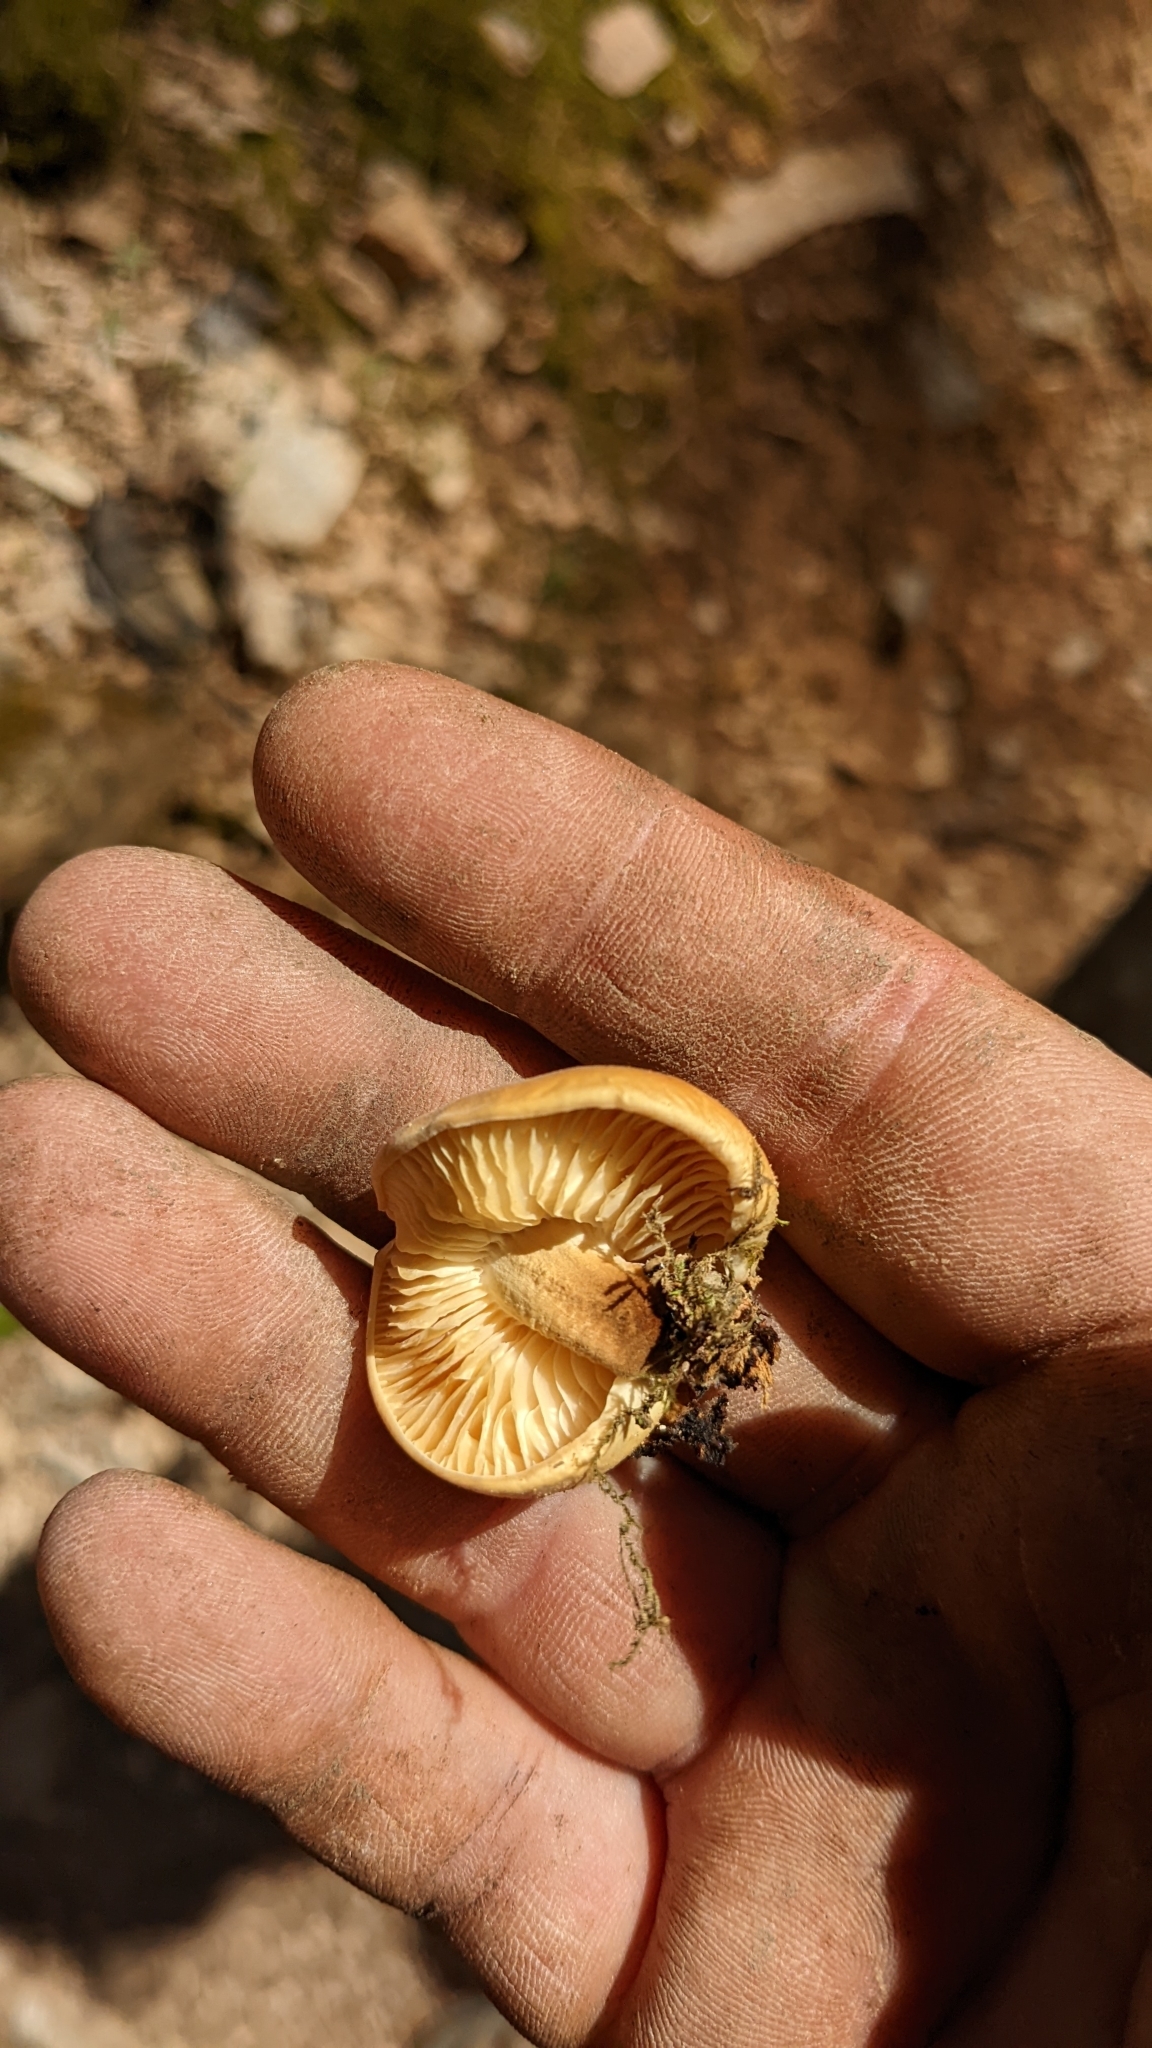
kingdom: Fungi
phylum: Basidiomycota
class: Agaricomycetes
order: Agaricales
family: Physalacriaceae
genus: Flammulina
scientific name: Flammulina velutipes
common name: Velvet shank
